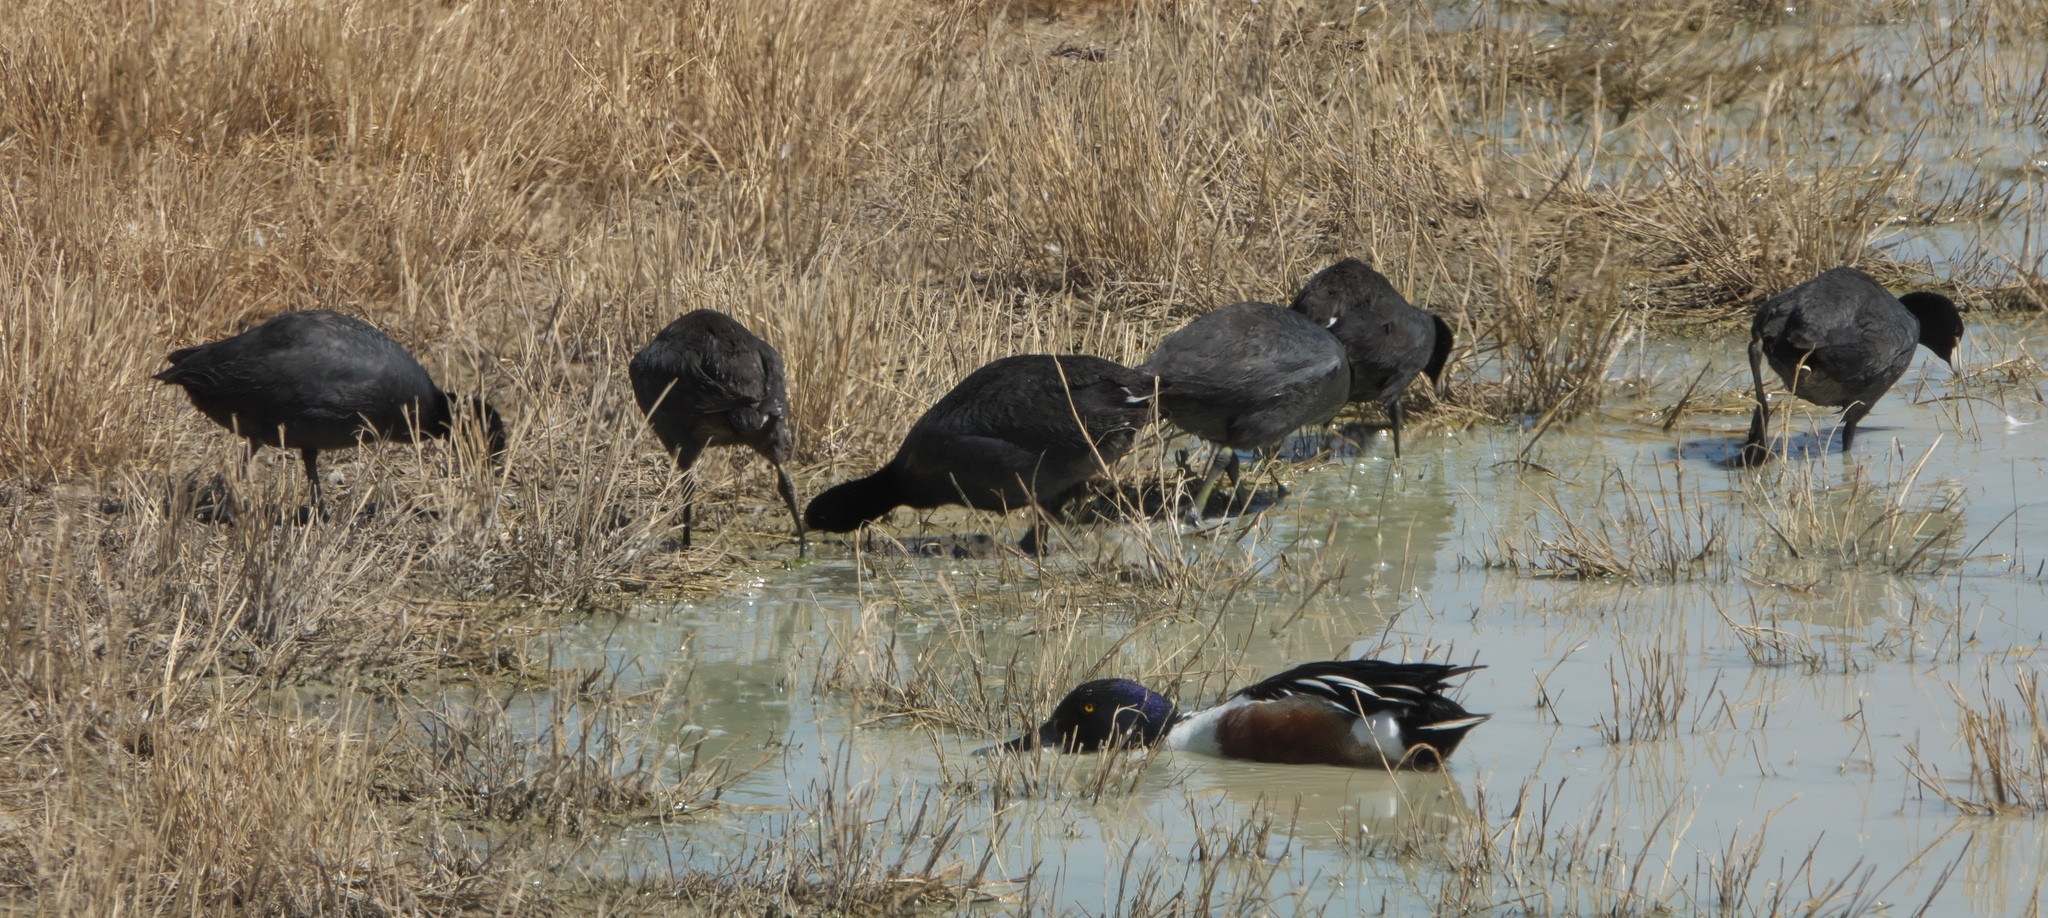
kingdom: Animalia
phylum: Chordata
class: Aves
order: Gruiformes
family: Rallidae
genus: Fulica
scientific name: Fulica americana
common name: American coot
